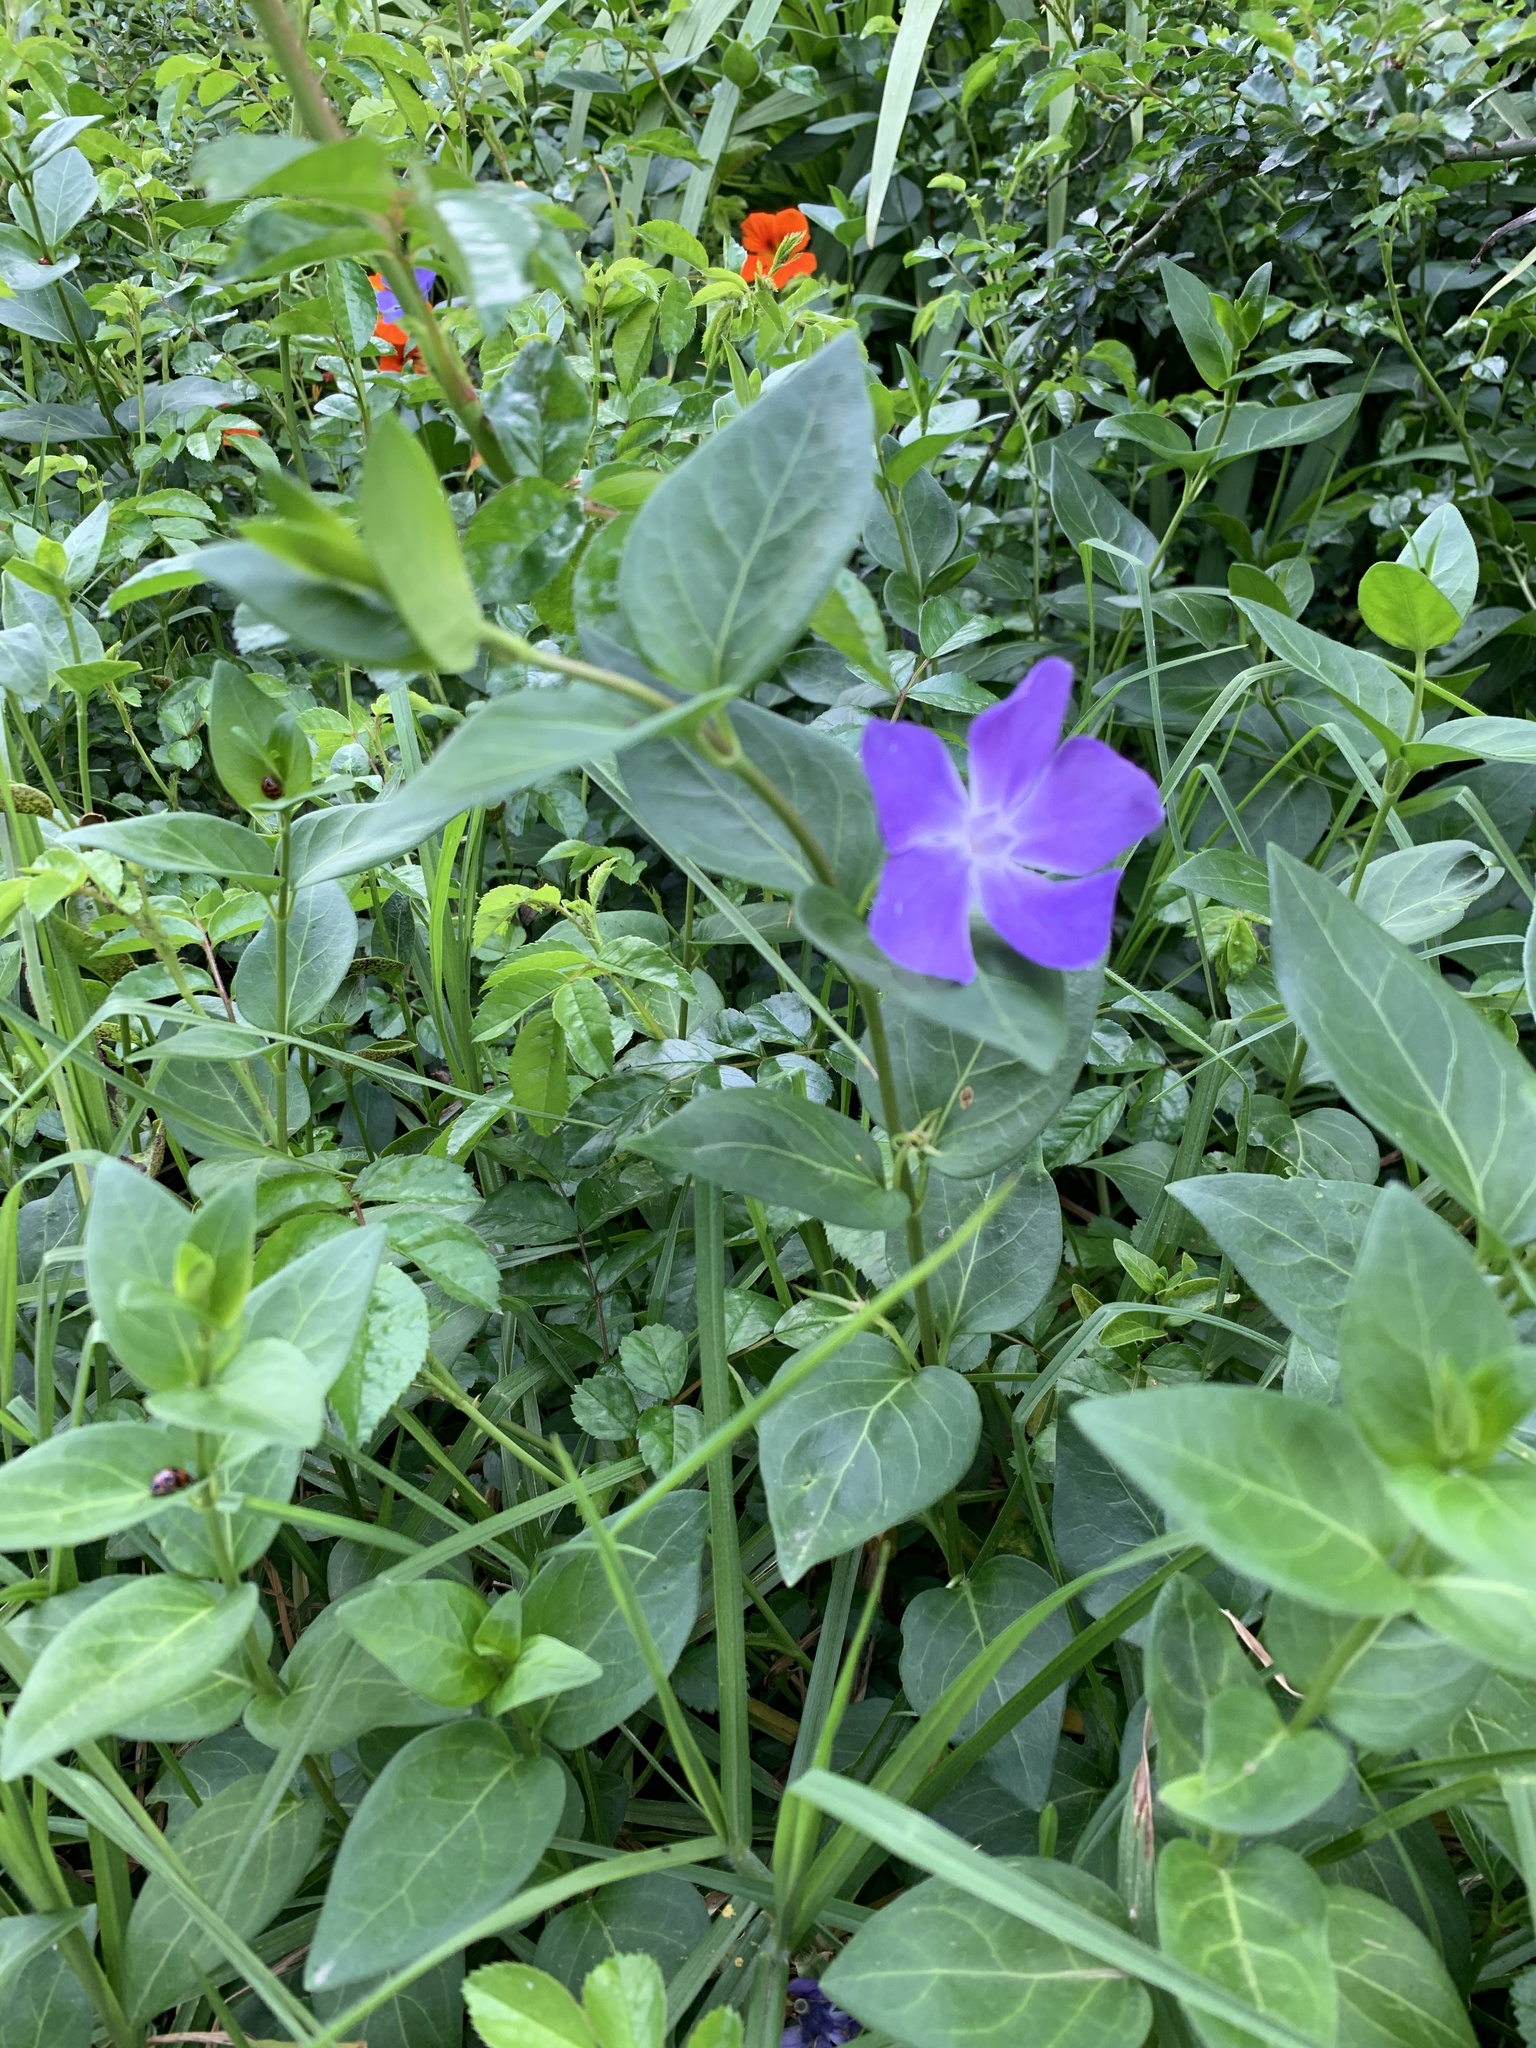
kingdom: Plantae
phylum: Tracheophyta
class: Magnoliopsida
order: Gentianales
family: Apocynaceae
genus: Vinca
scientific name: Vinca major
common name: Greater periwinkle
